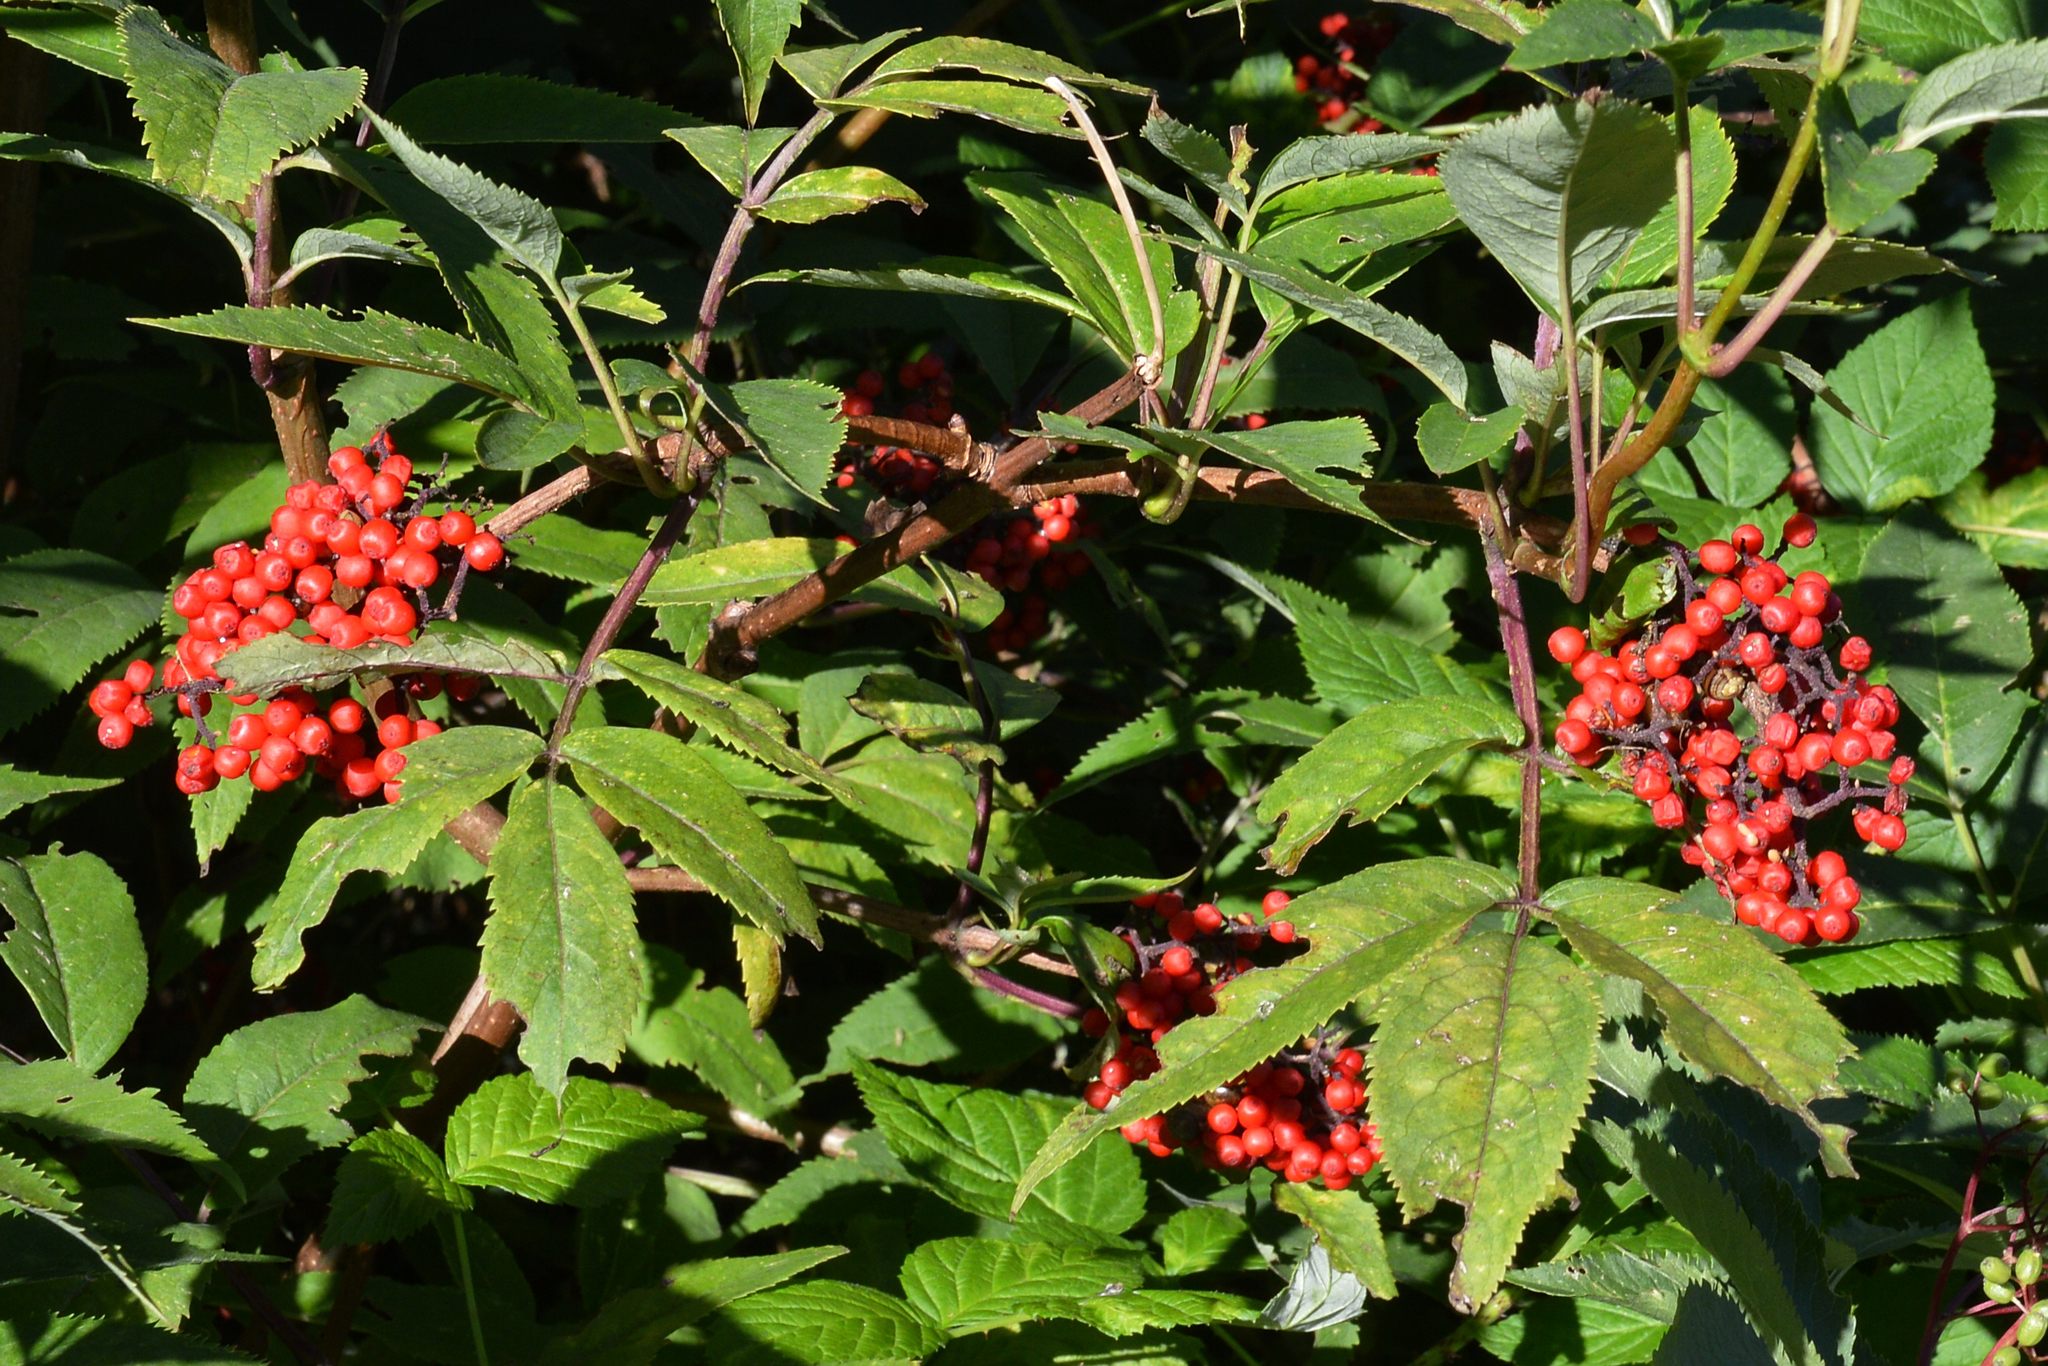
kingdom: Plantae
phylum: Tracheophyta
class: Magnoliopsida
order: Dipsacales
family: Viburnaceae
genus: Sambucus
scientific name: Sambucus racemosa
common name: Red-berried elder
